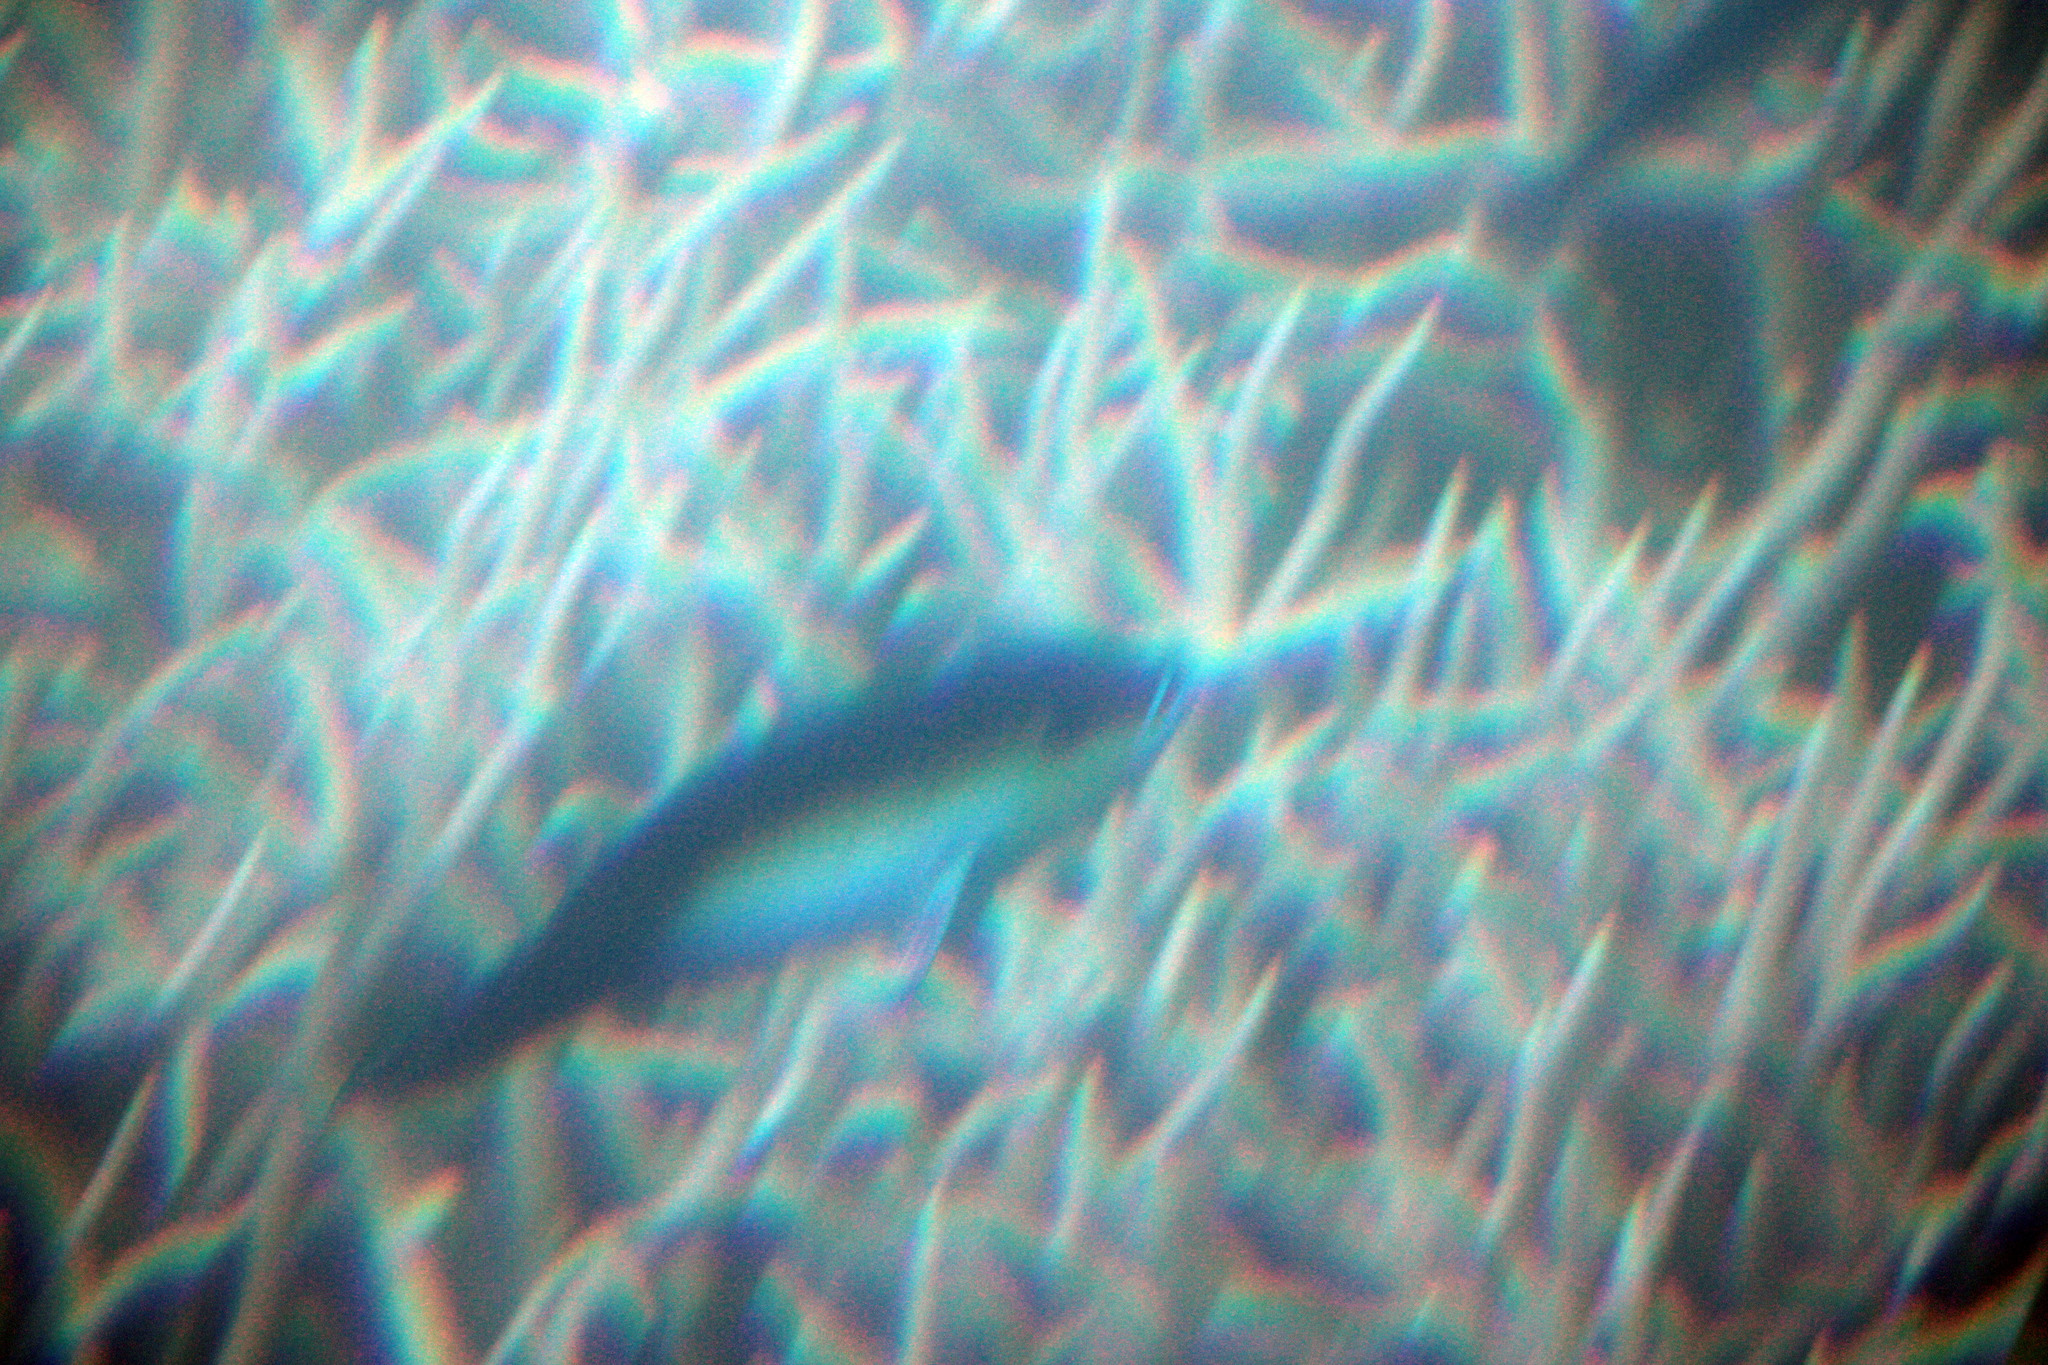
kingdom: Animalia
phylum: Chordata
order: Perciformes
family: Scaridae
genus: Scarus
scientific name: Scarus chameleon
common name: Chameleon parrotfish
